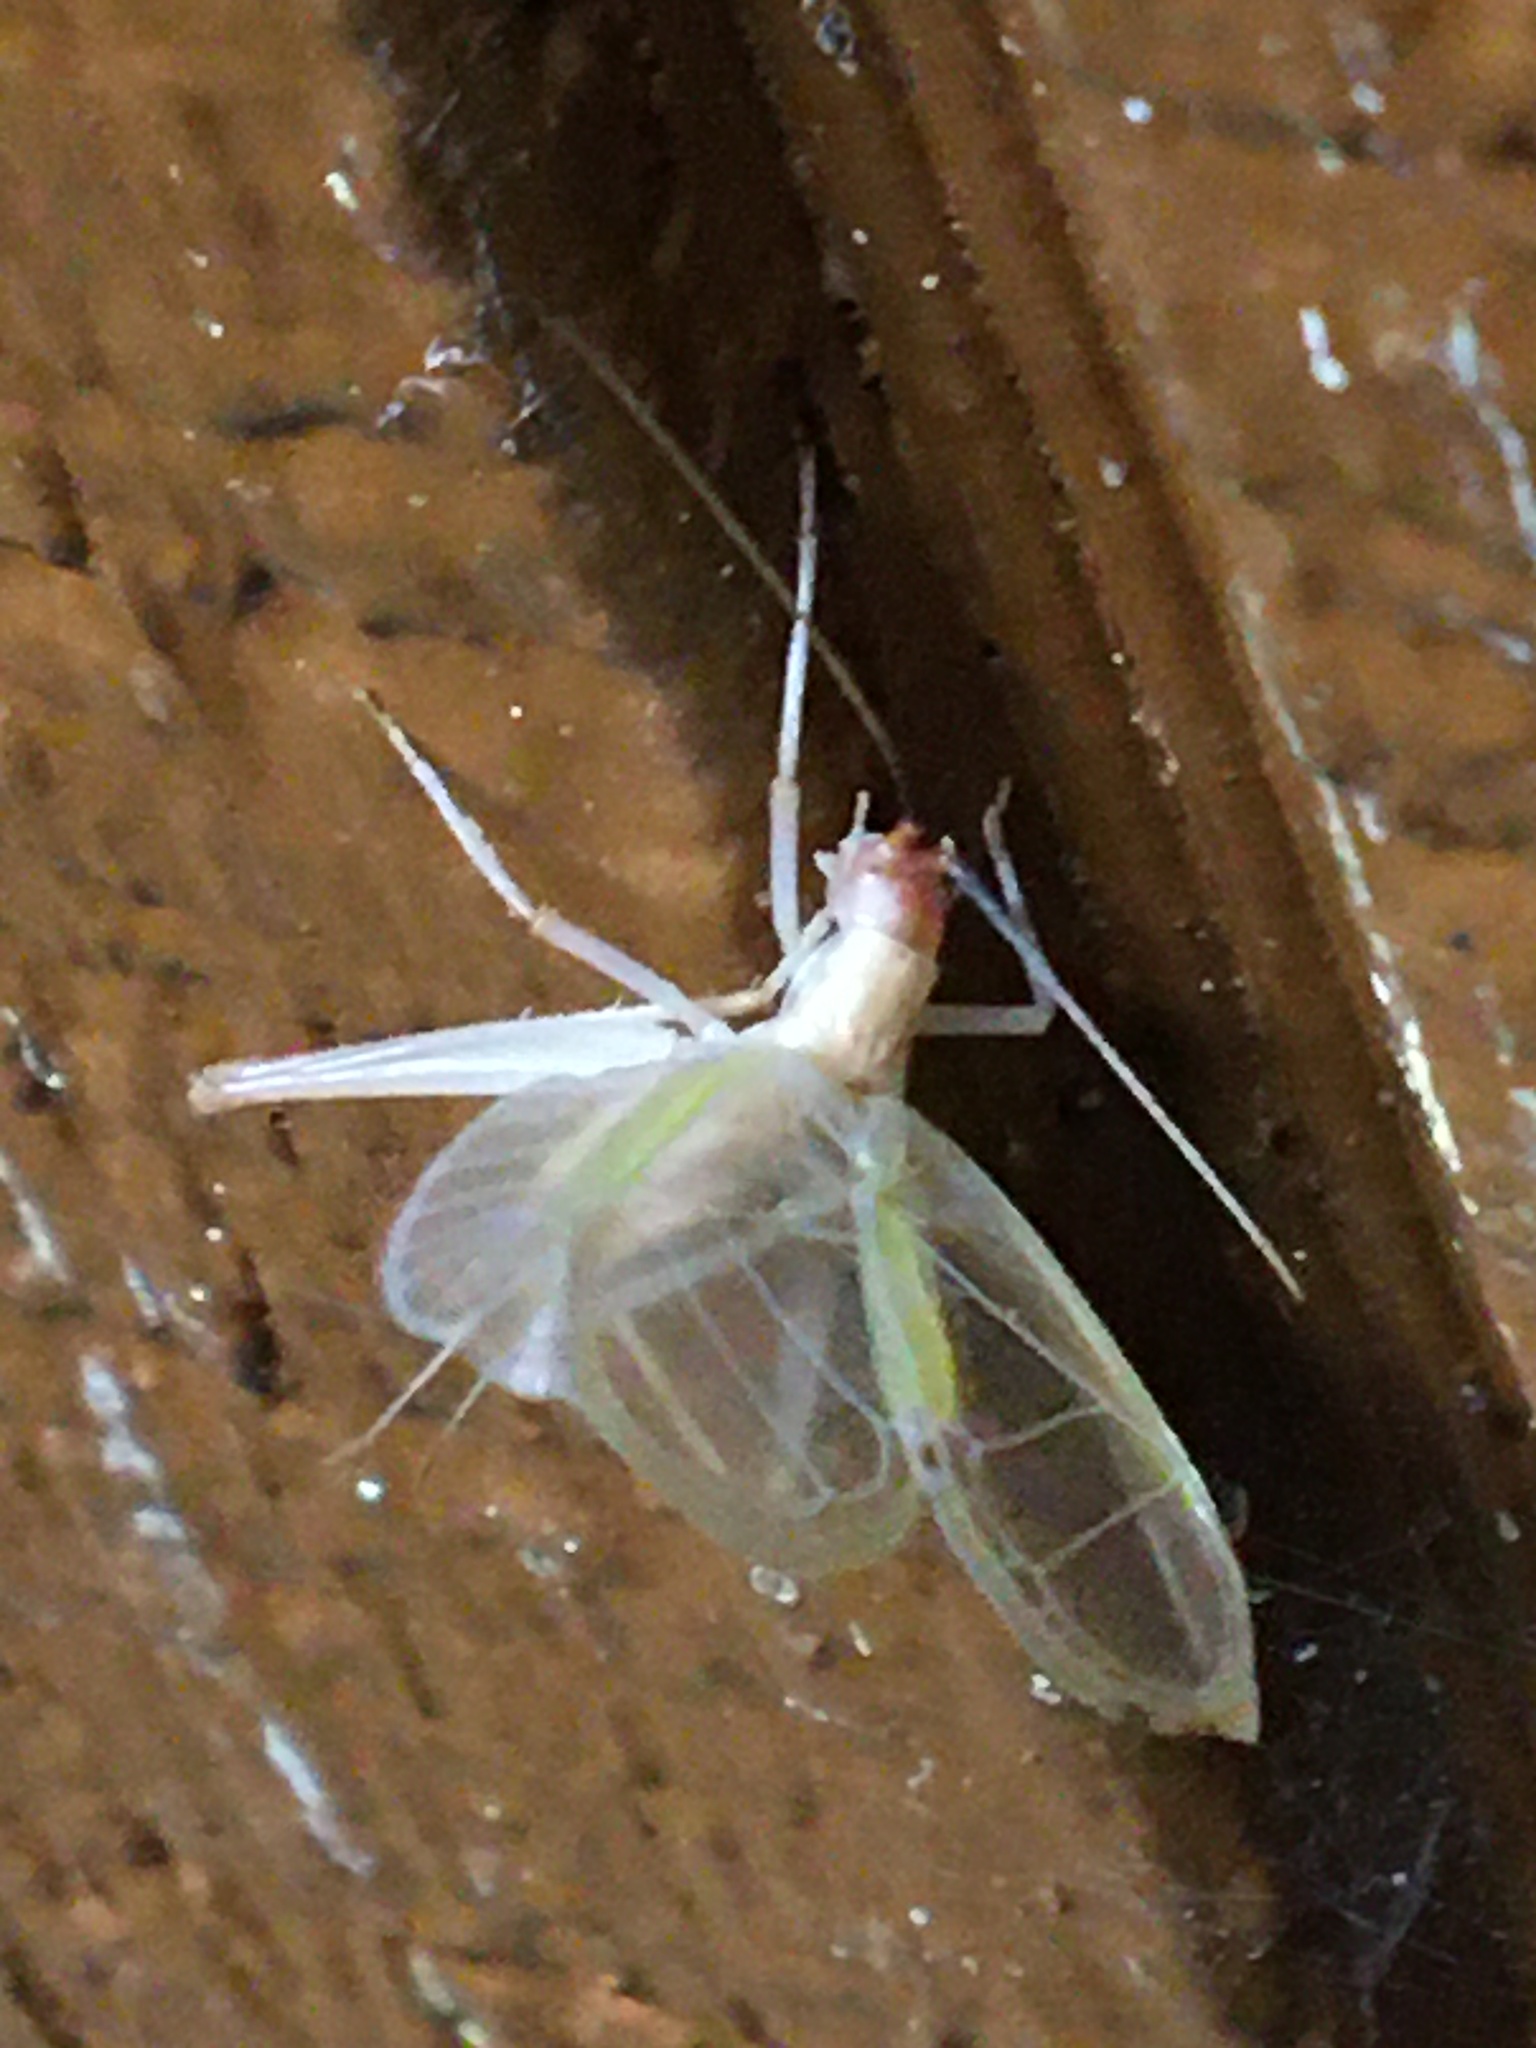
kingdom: Animalia
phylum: Arthropoda
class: Insecta
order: Orthoptera
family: Gryllidae
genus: Oecanthus
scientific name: Oecanthus texensis
